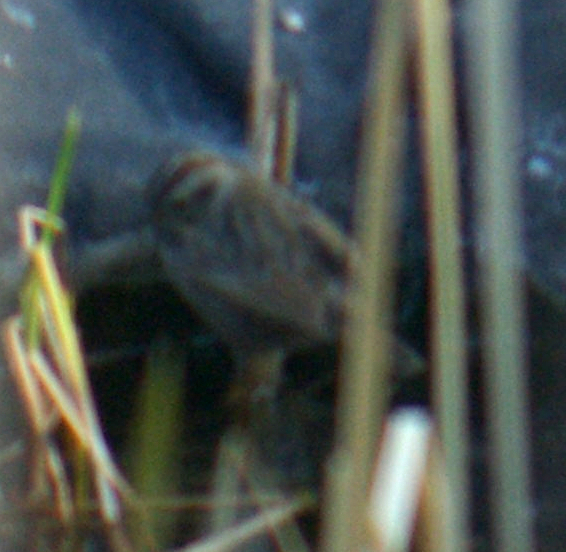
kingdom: Animalia
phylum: Chordata
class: Aves
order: Passeriformes
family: Passerellidae
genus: Melospiza
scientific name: Melospiza melodia
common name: Song sparrow
